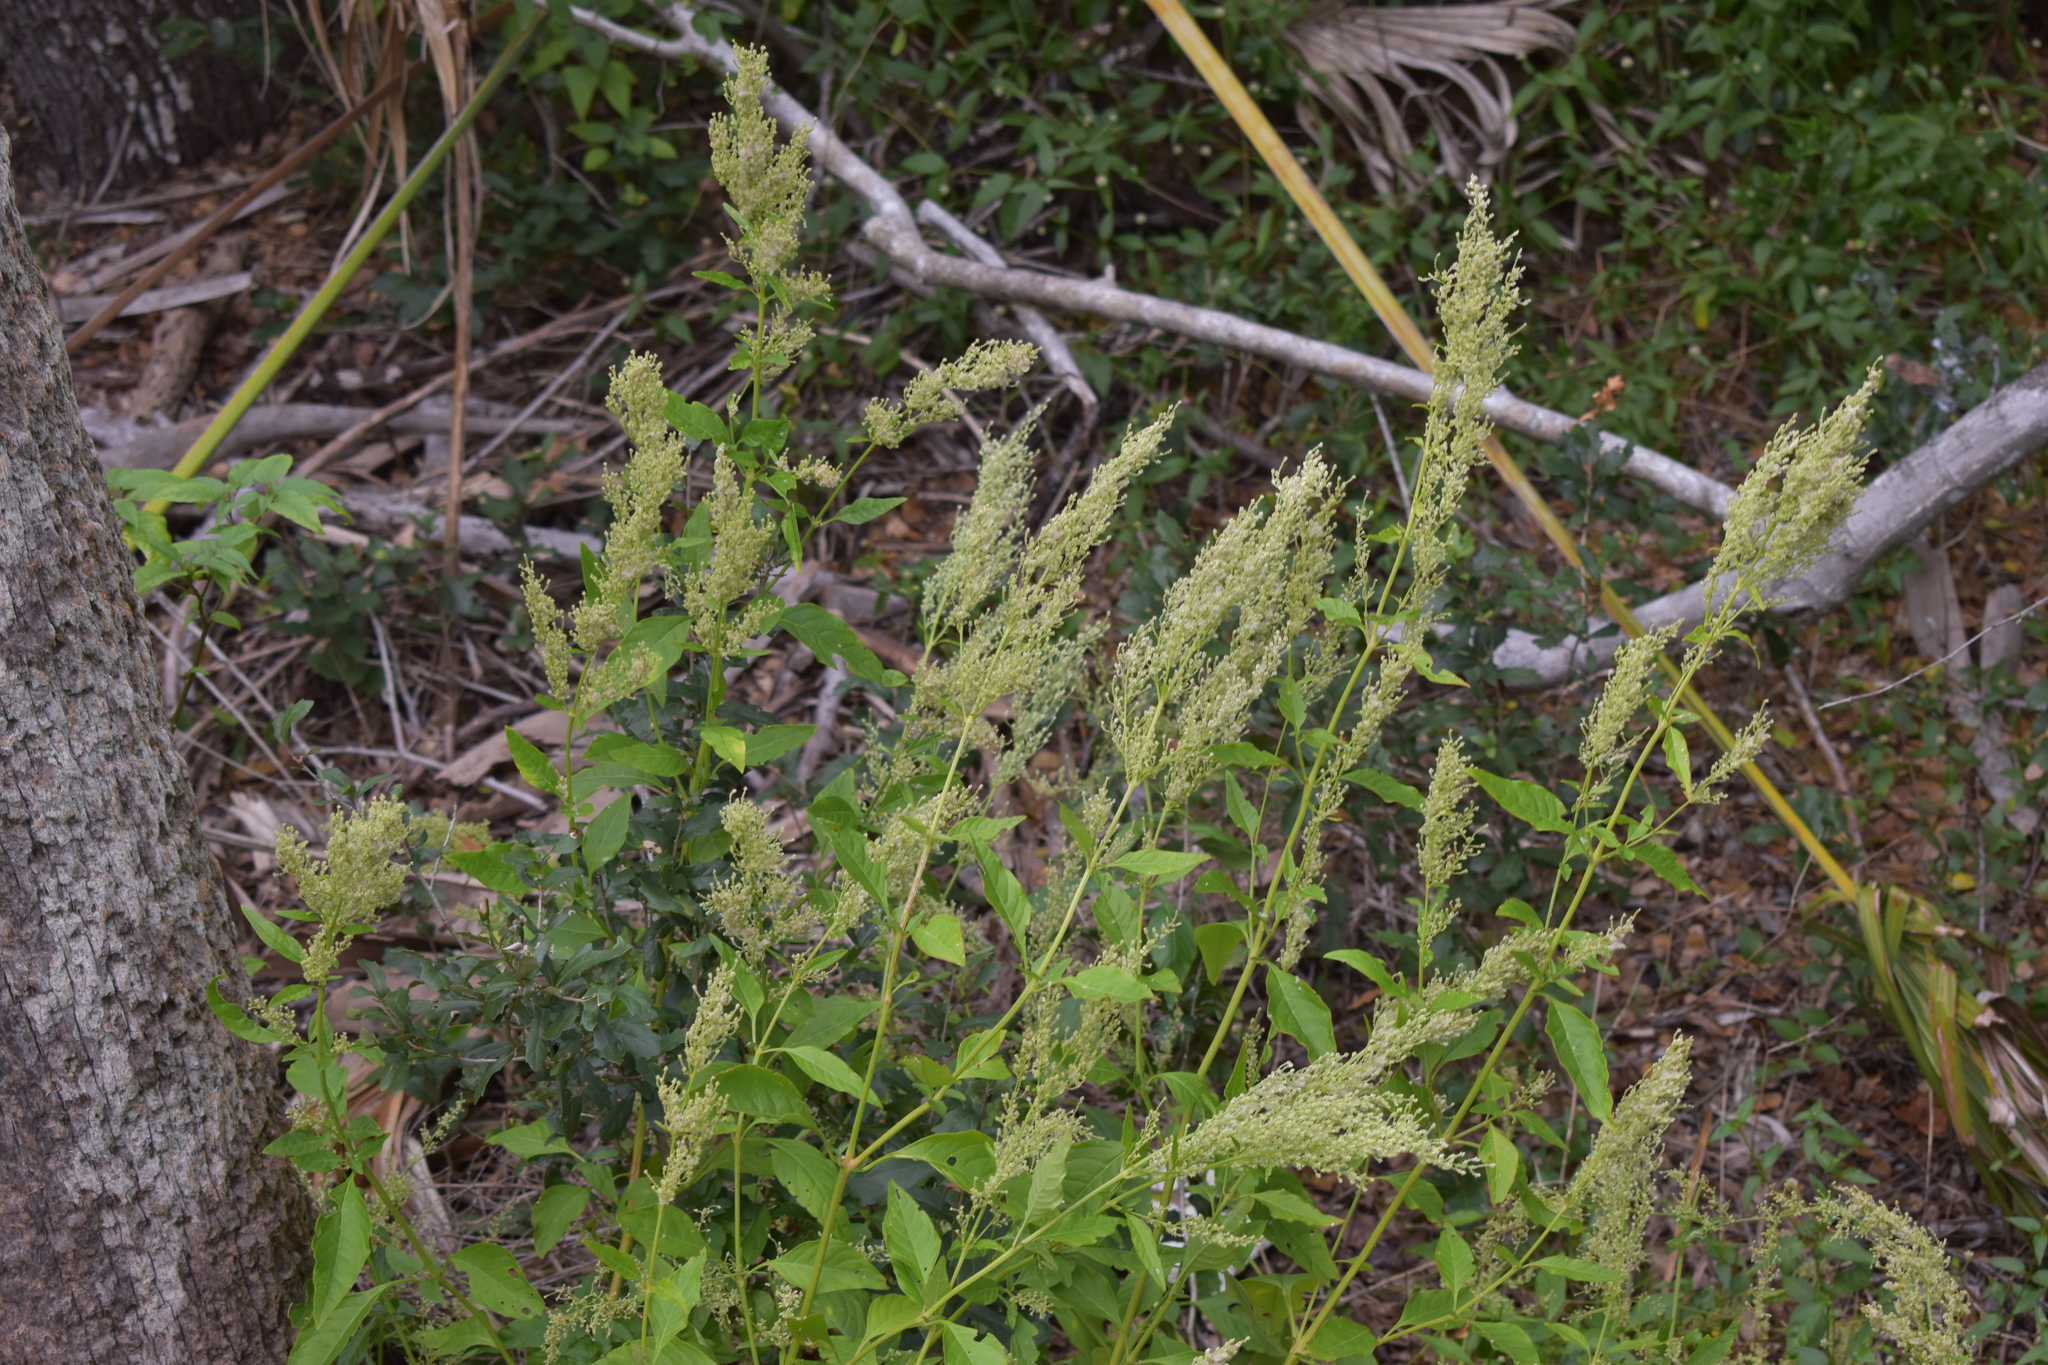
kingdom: Plantae
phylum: Tracheophyta
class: Magnoliopsida
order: Caryophyllales
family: Amaranthaceae
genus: Iresine
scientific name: Iresine diffusa
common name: Juba's-bush
